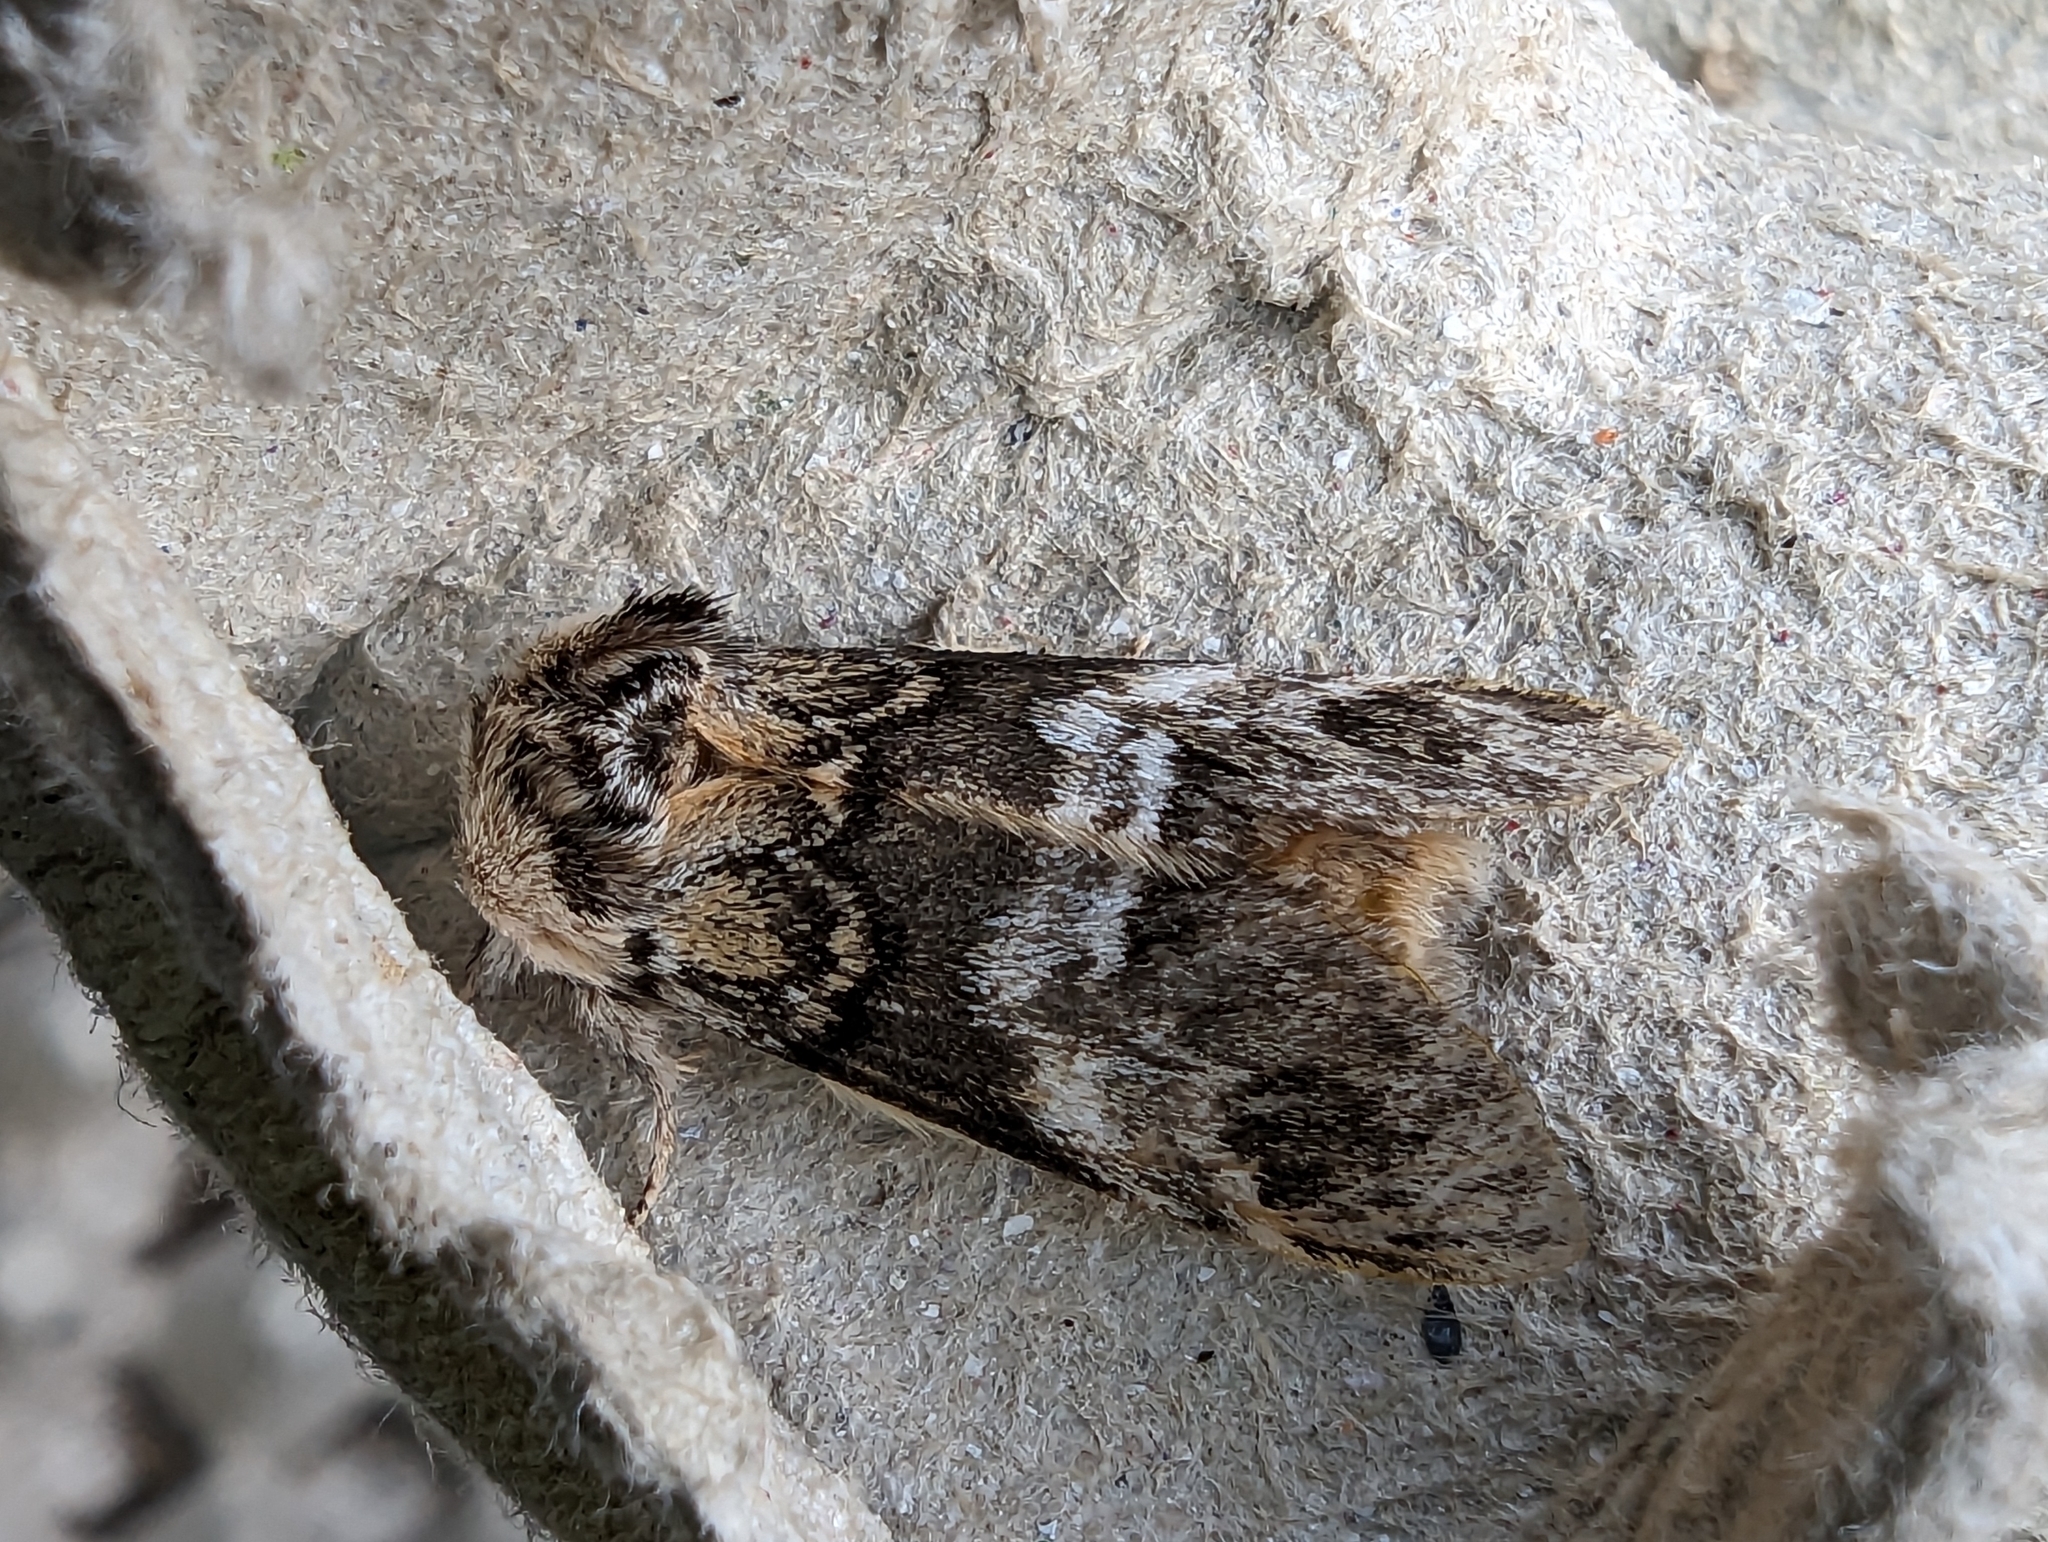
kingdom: Animalia
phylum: Arthropoda
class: Insecta
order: Lepidoptera
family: Notodontidae
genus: Drymonia
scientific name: Drymonia dodonaea
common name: Marbled brown
